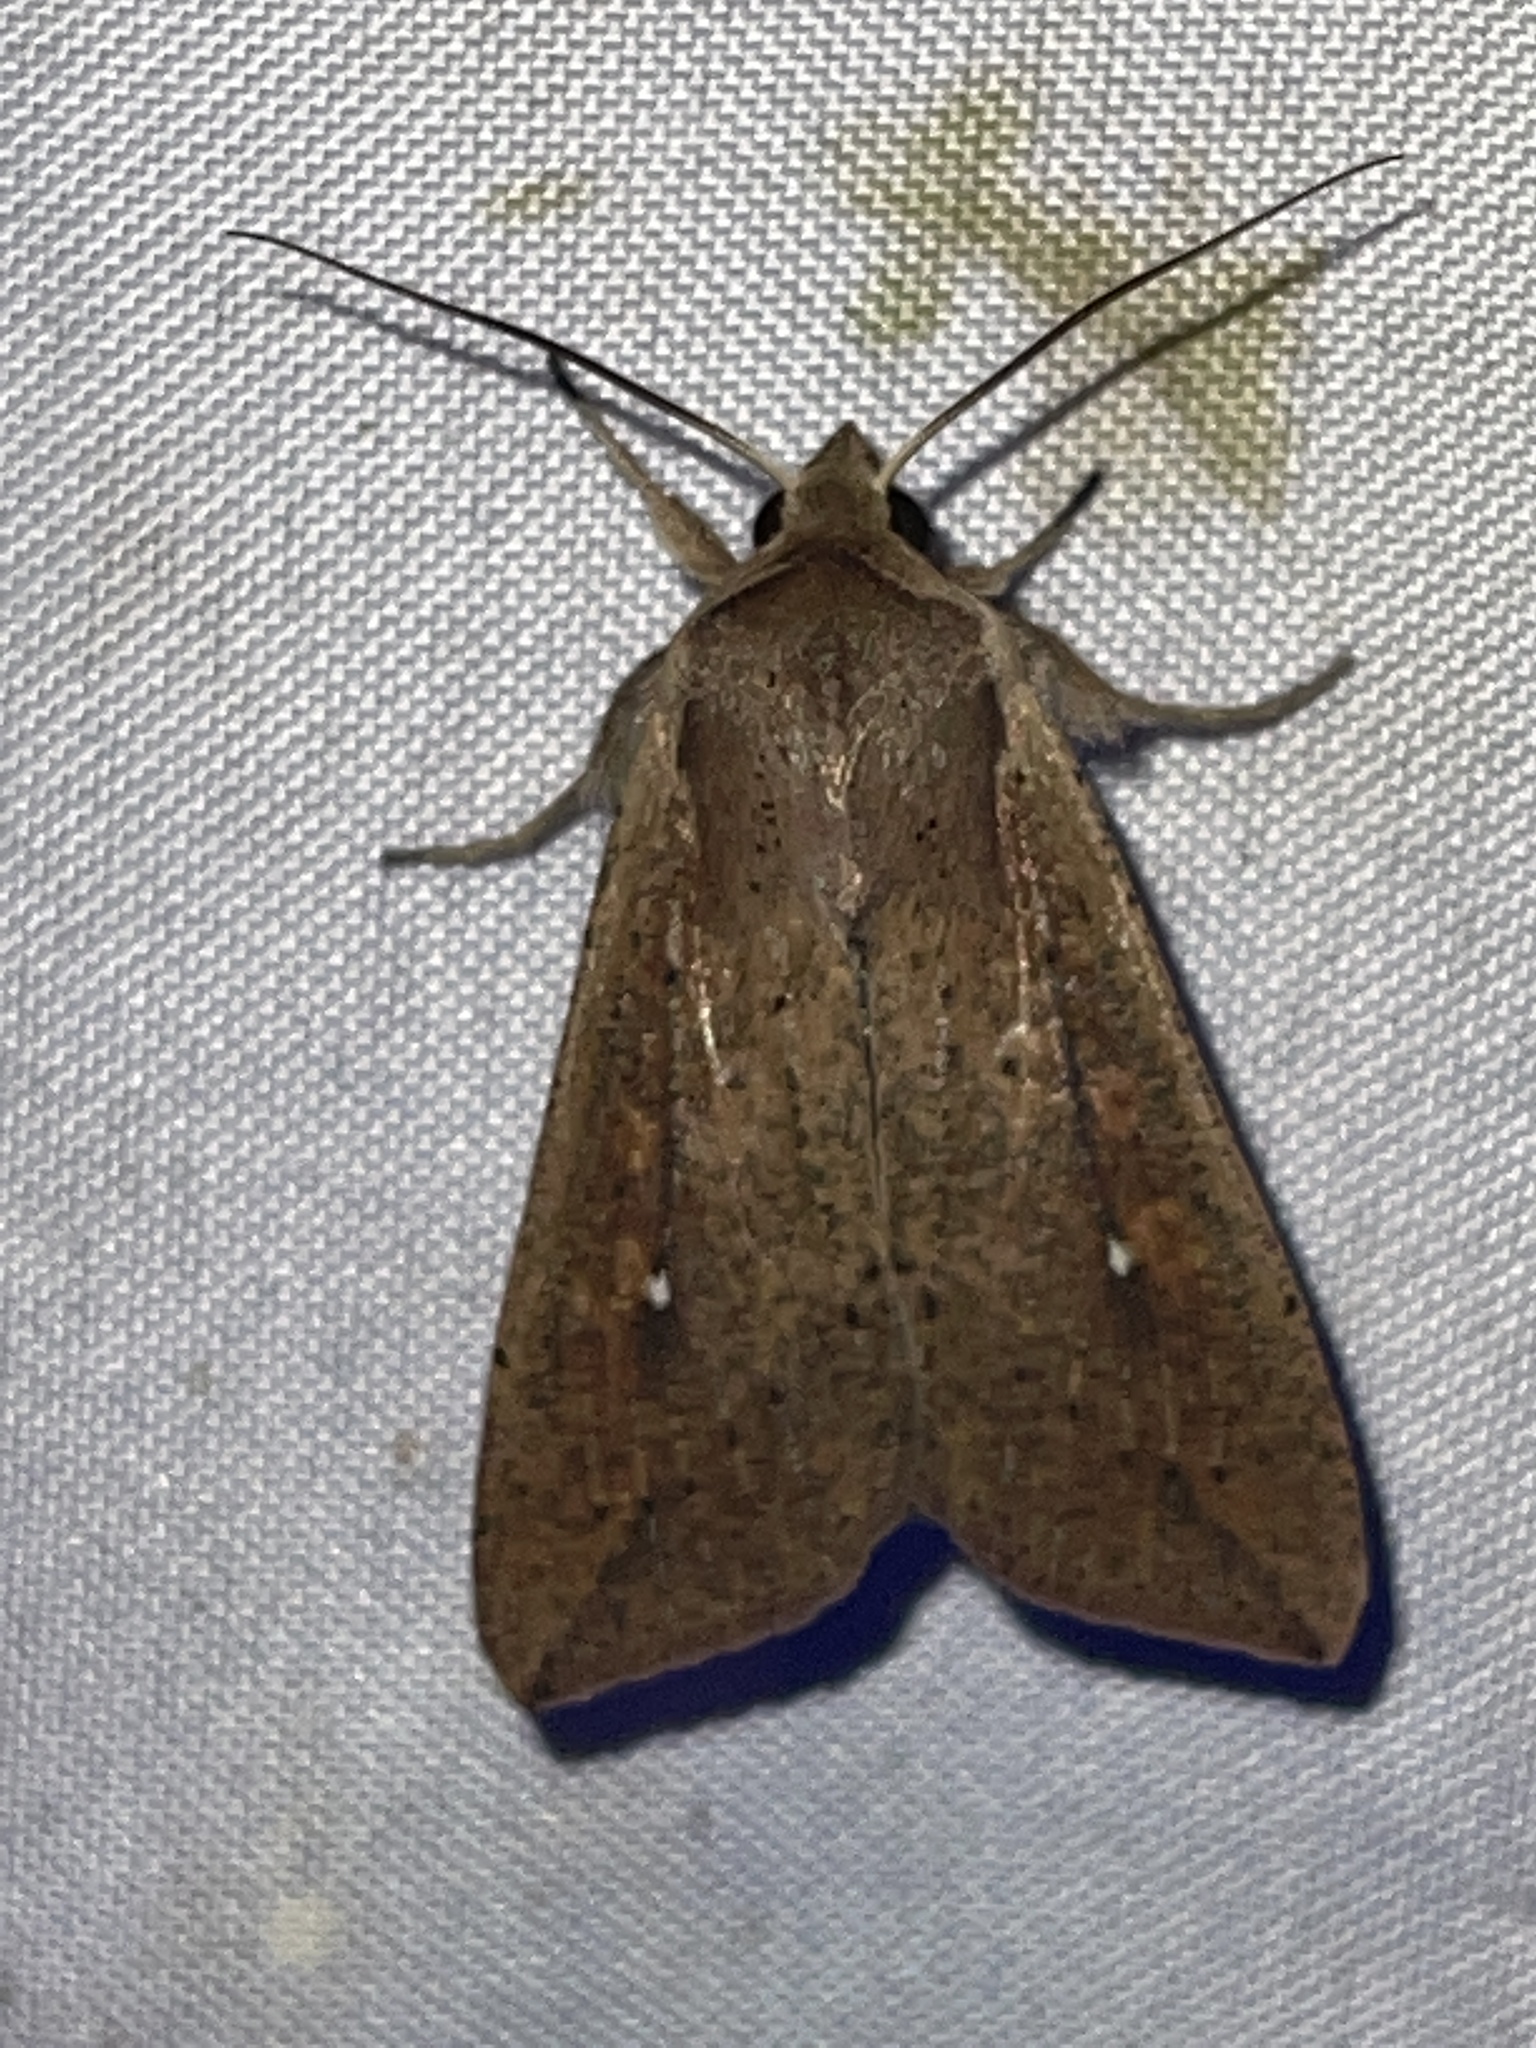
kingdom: Animalia
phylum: Arthropoda
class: Insecta
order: Lepidoptera
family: Noctuidae
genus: Mythimna
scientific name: Mythimna unipuncta
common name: White-speck
